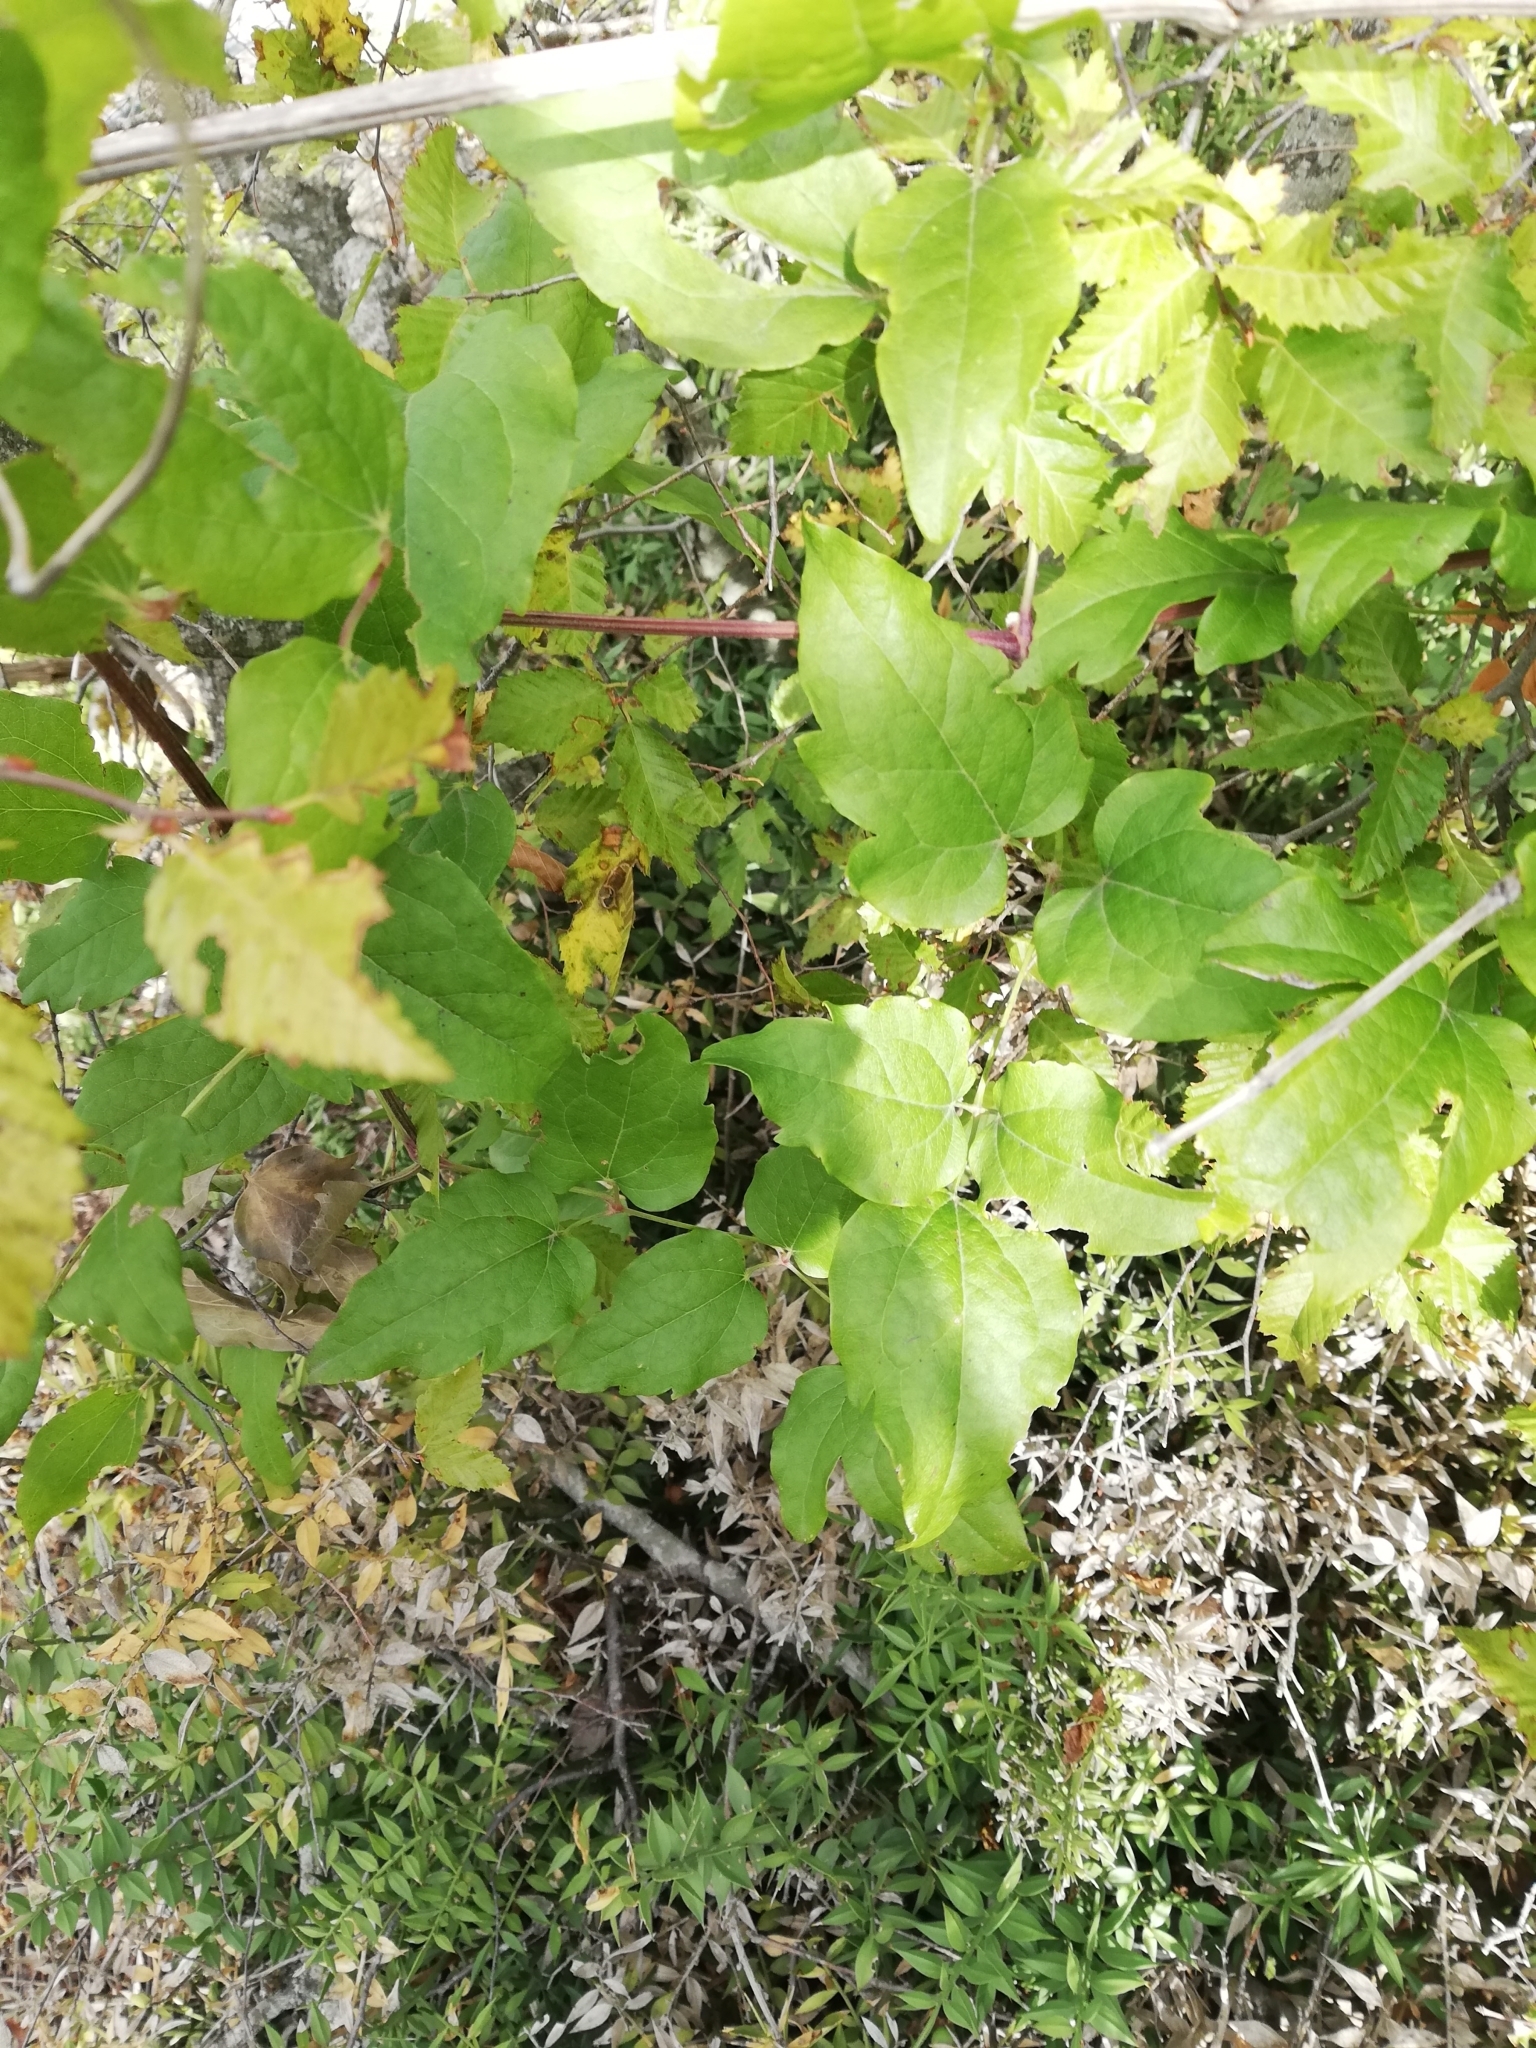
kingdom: Plantae
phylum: Tracheophyta
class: Magnoliopsida
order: Ranunculales
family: Ranunculaceae
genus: Clematis
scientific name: Clematis vitalba
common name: Evergreen clematis
